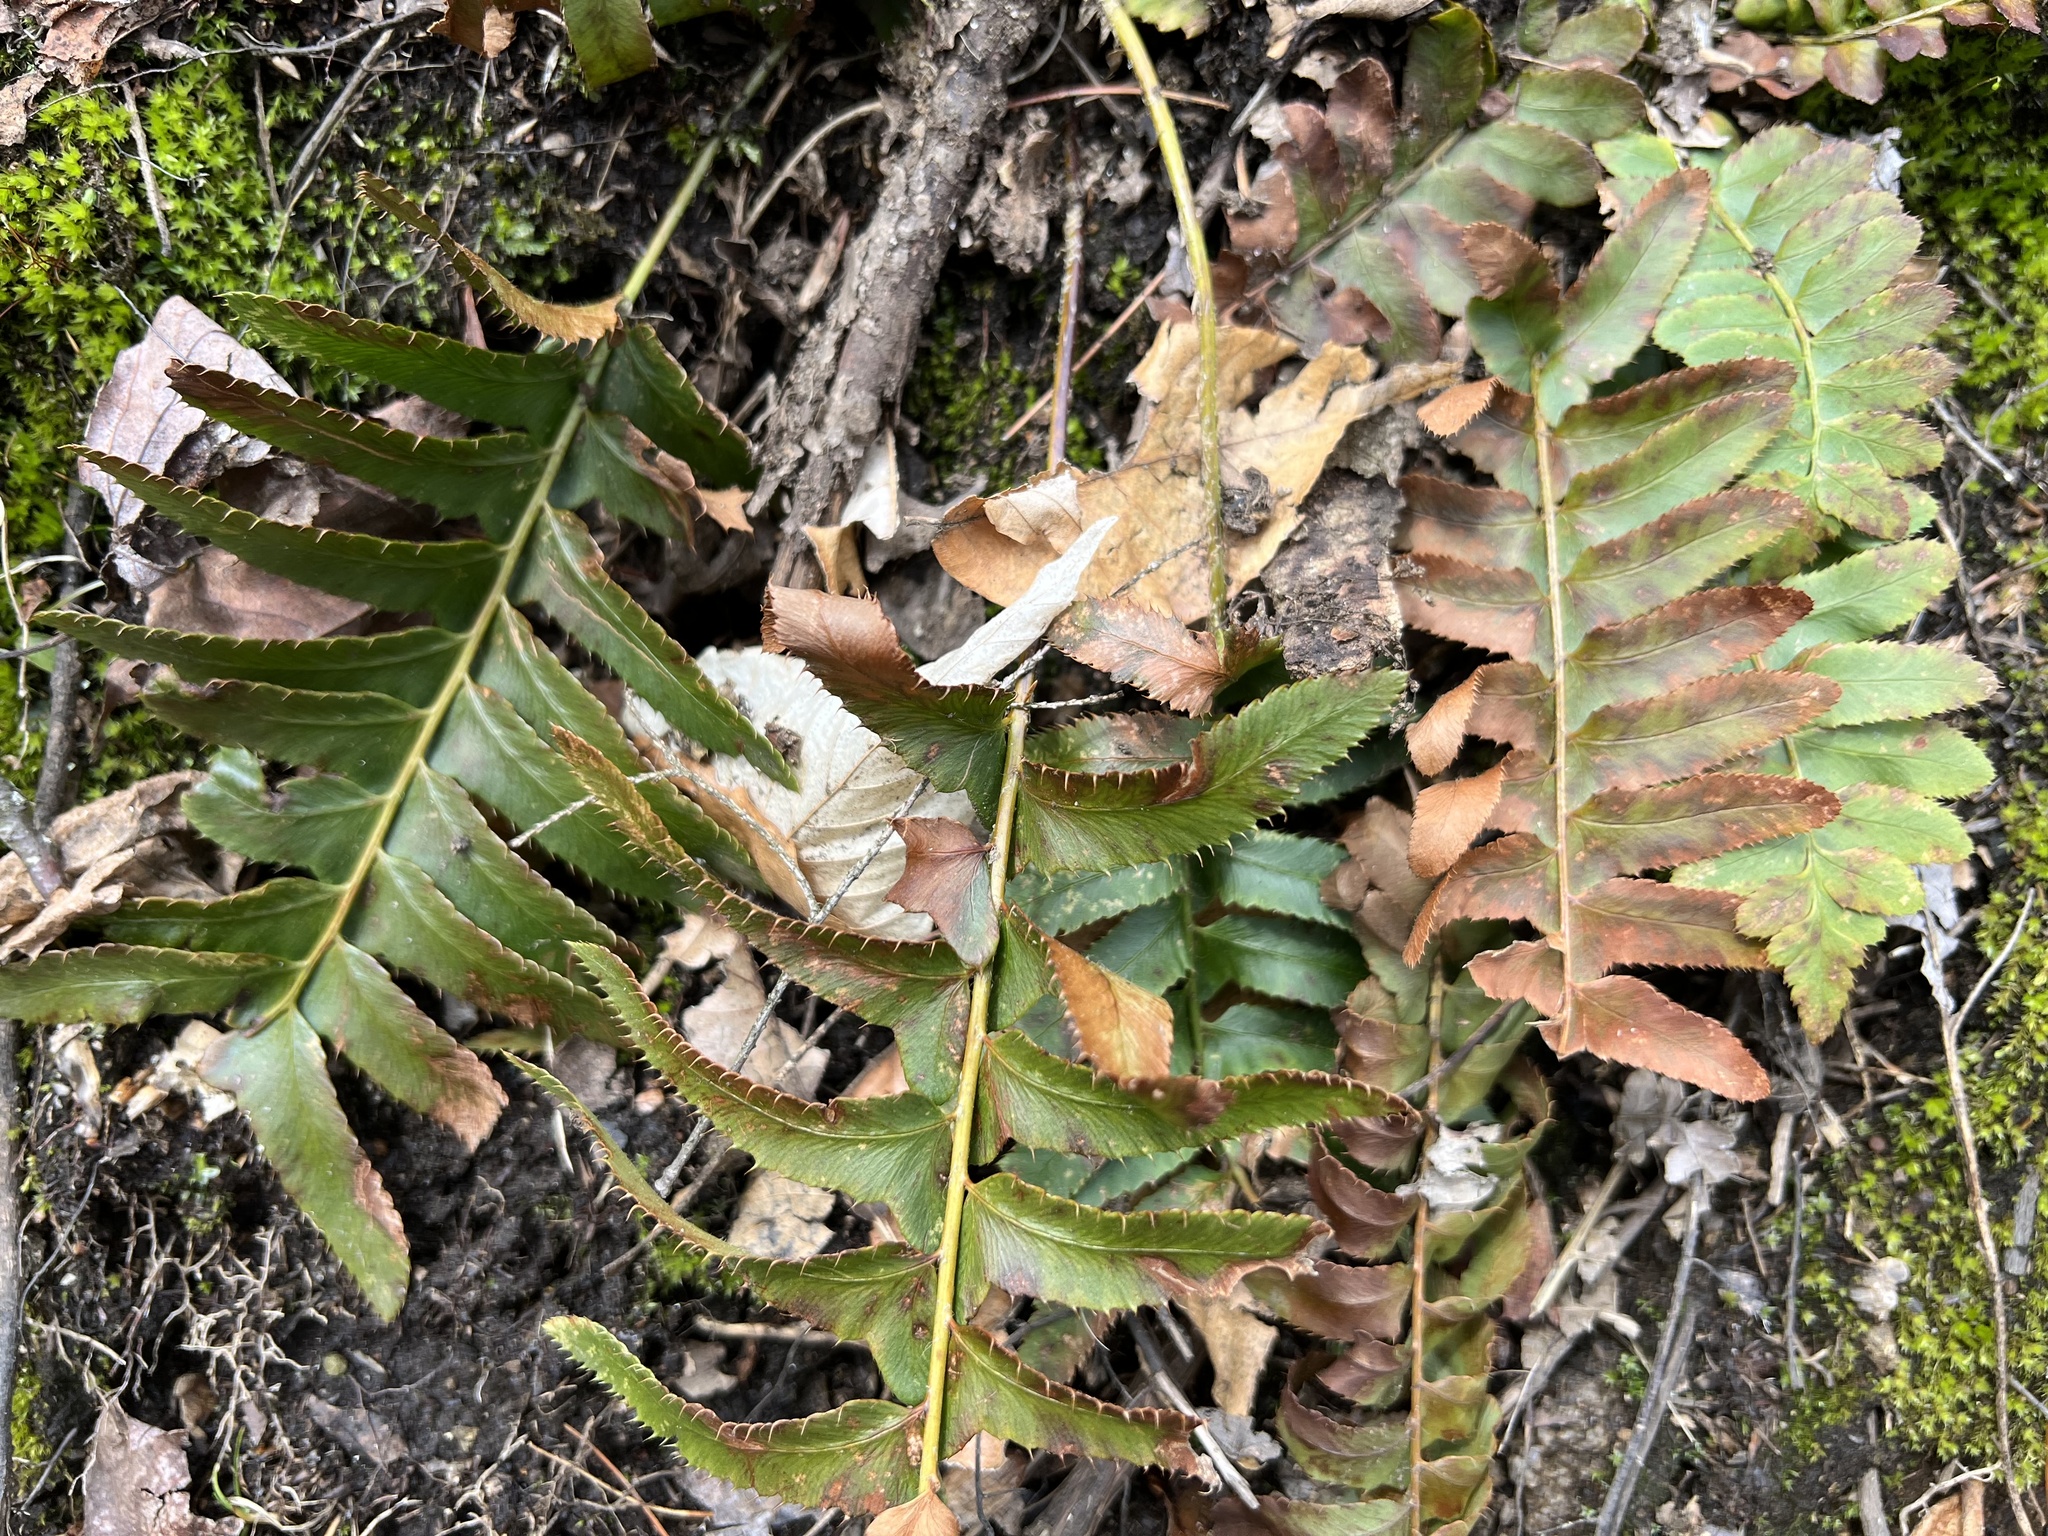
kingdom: Plantae
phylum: Tracheophyta
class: Polypodiopsida
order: Polypodiales
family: Dryopteridaceae
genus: Polystichum
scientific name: Polystichum acrostichoides
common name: Christmas fern
